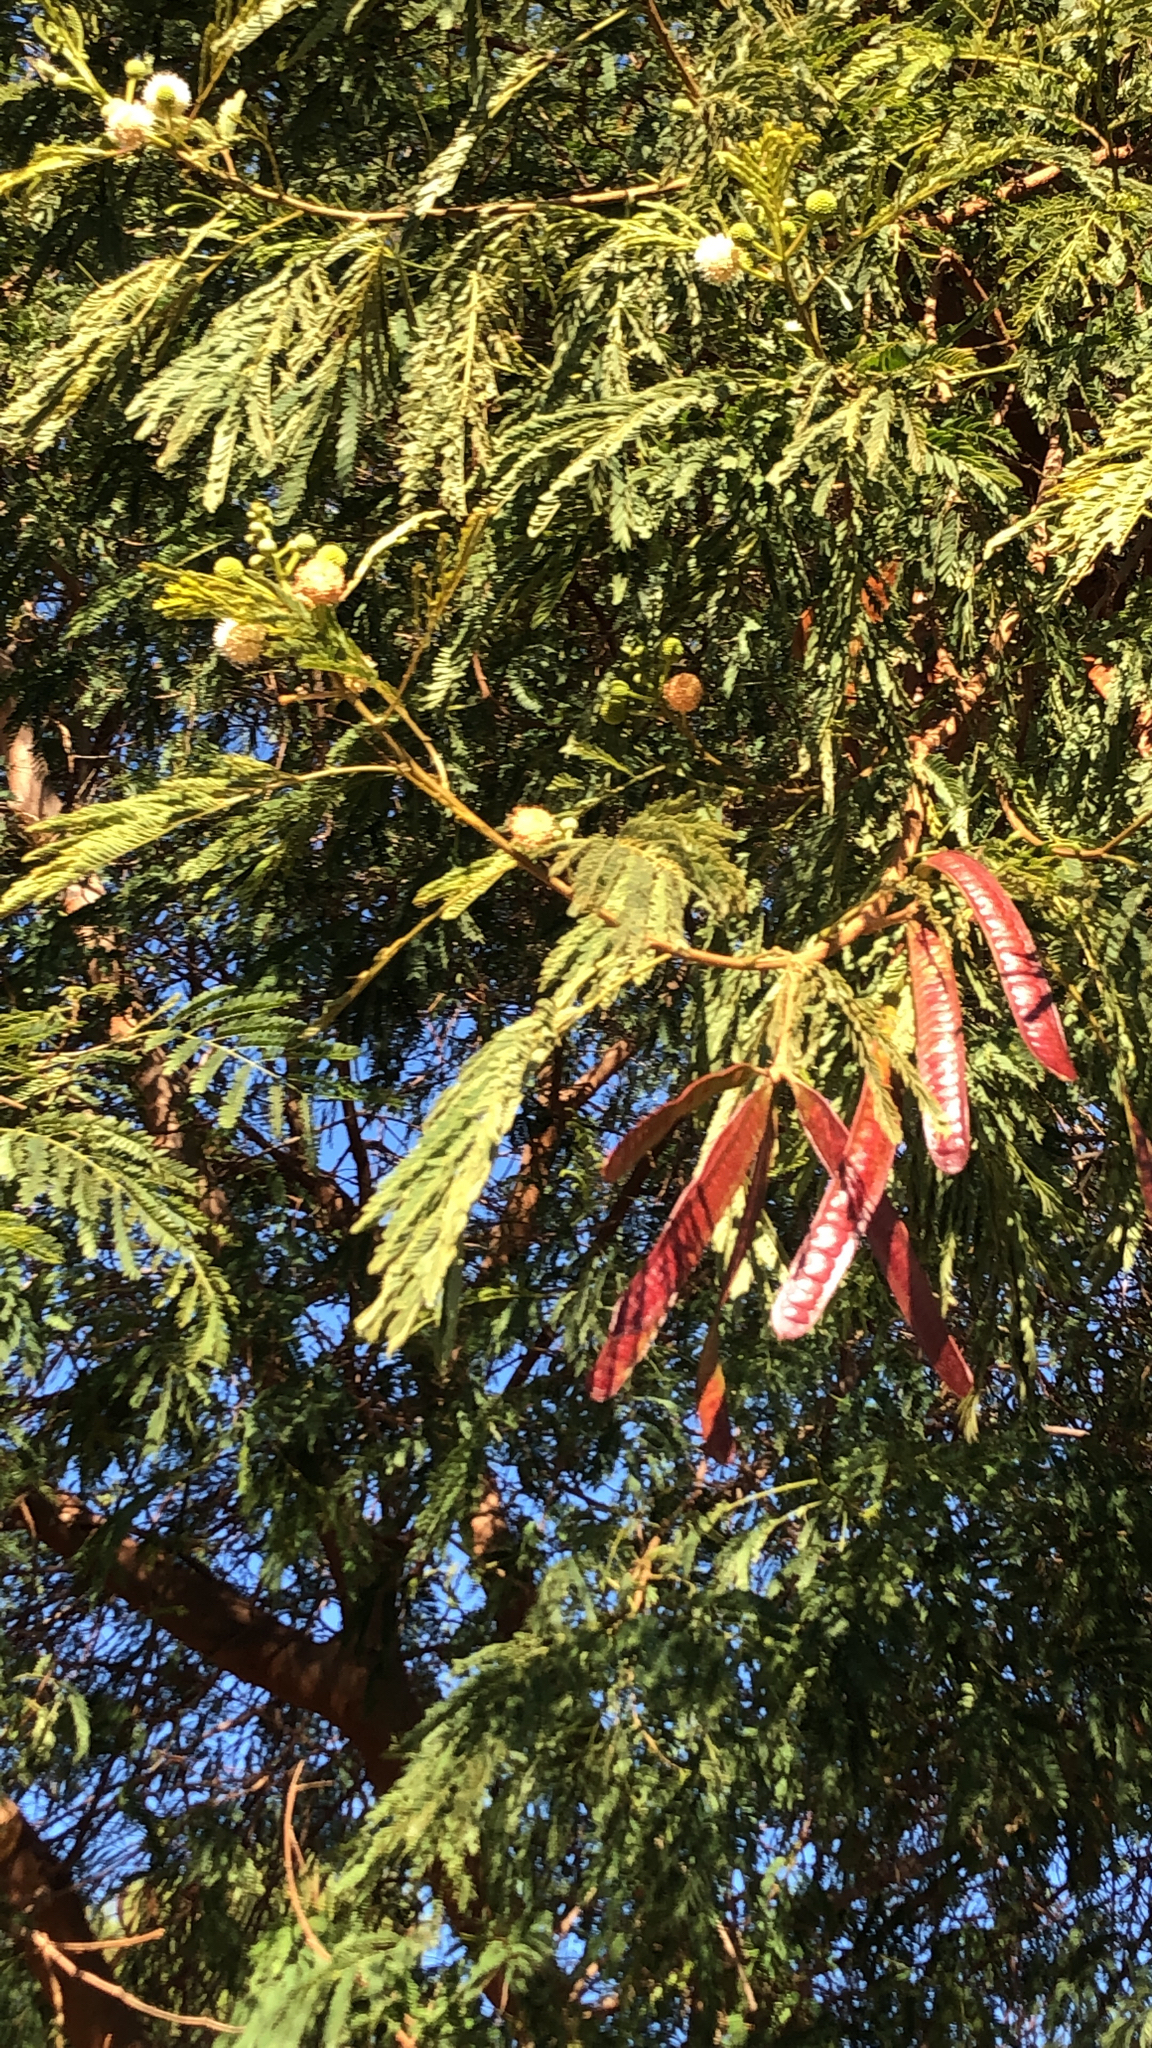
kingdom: Plantae
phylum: Tracheophyta
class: Magnoliopsida
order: Fabales
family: Fabaceae
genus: Leucaena
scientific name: Leucaena leucocephala
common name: White leadtree
